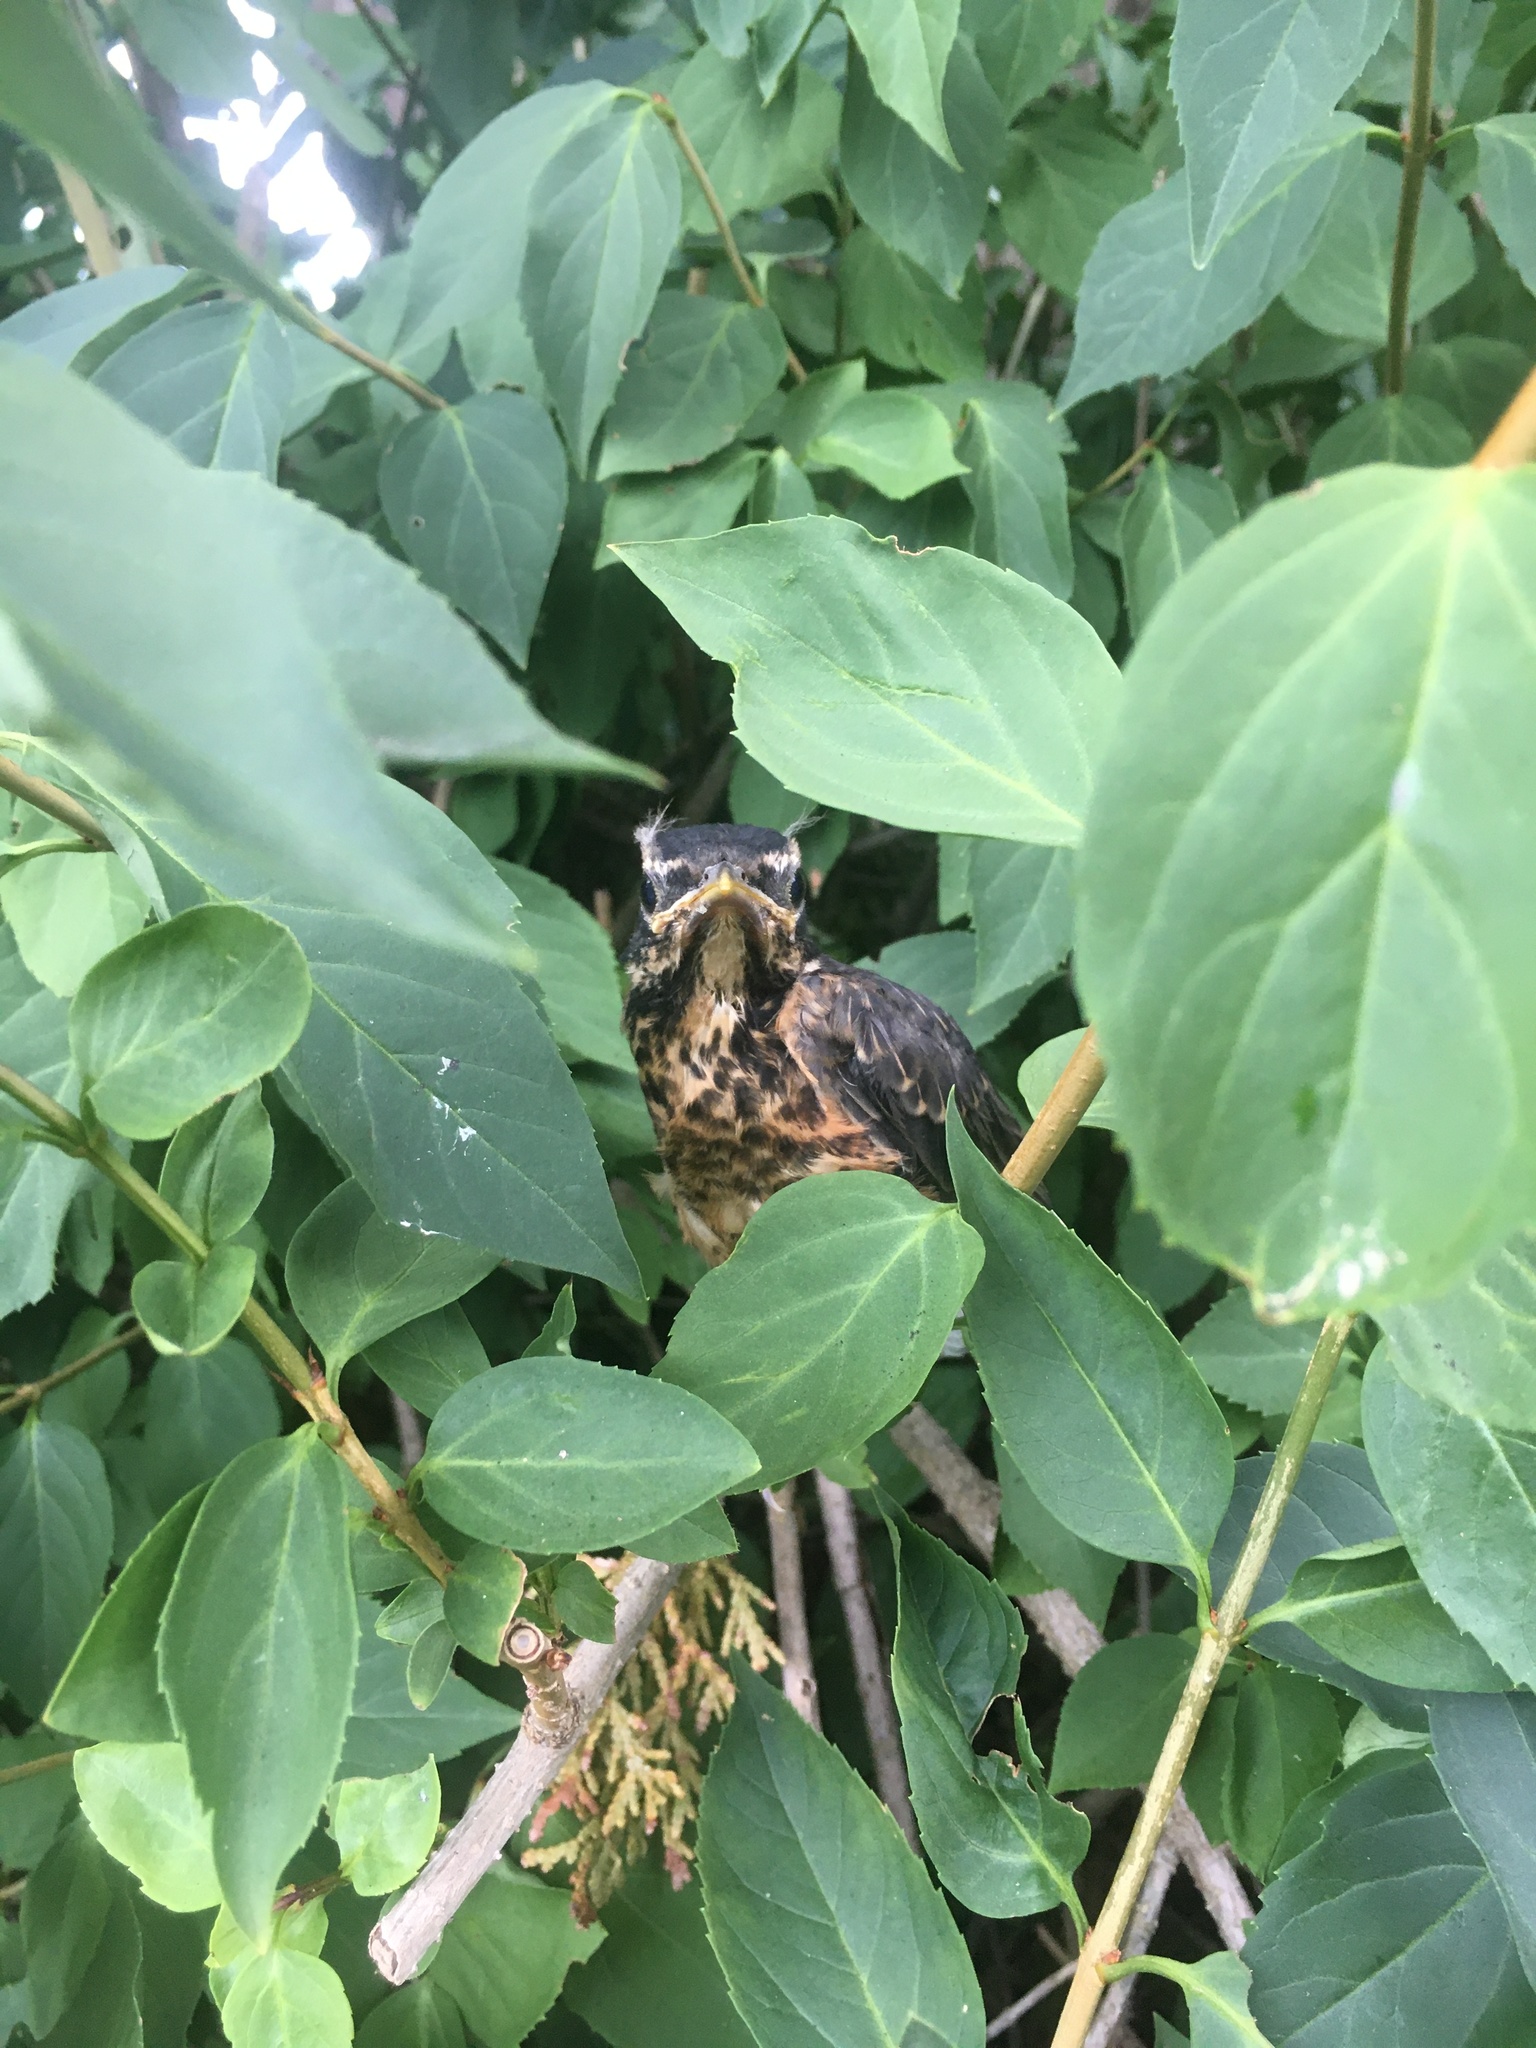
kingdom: Animalia
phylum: Chordata
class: Aves
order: Passeriformes
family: Turdidae
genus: Turdus
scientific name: Turdus migratorius
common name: American robin
